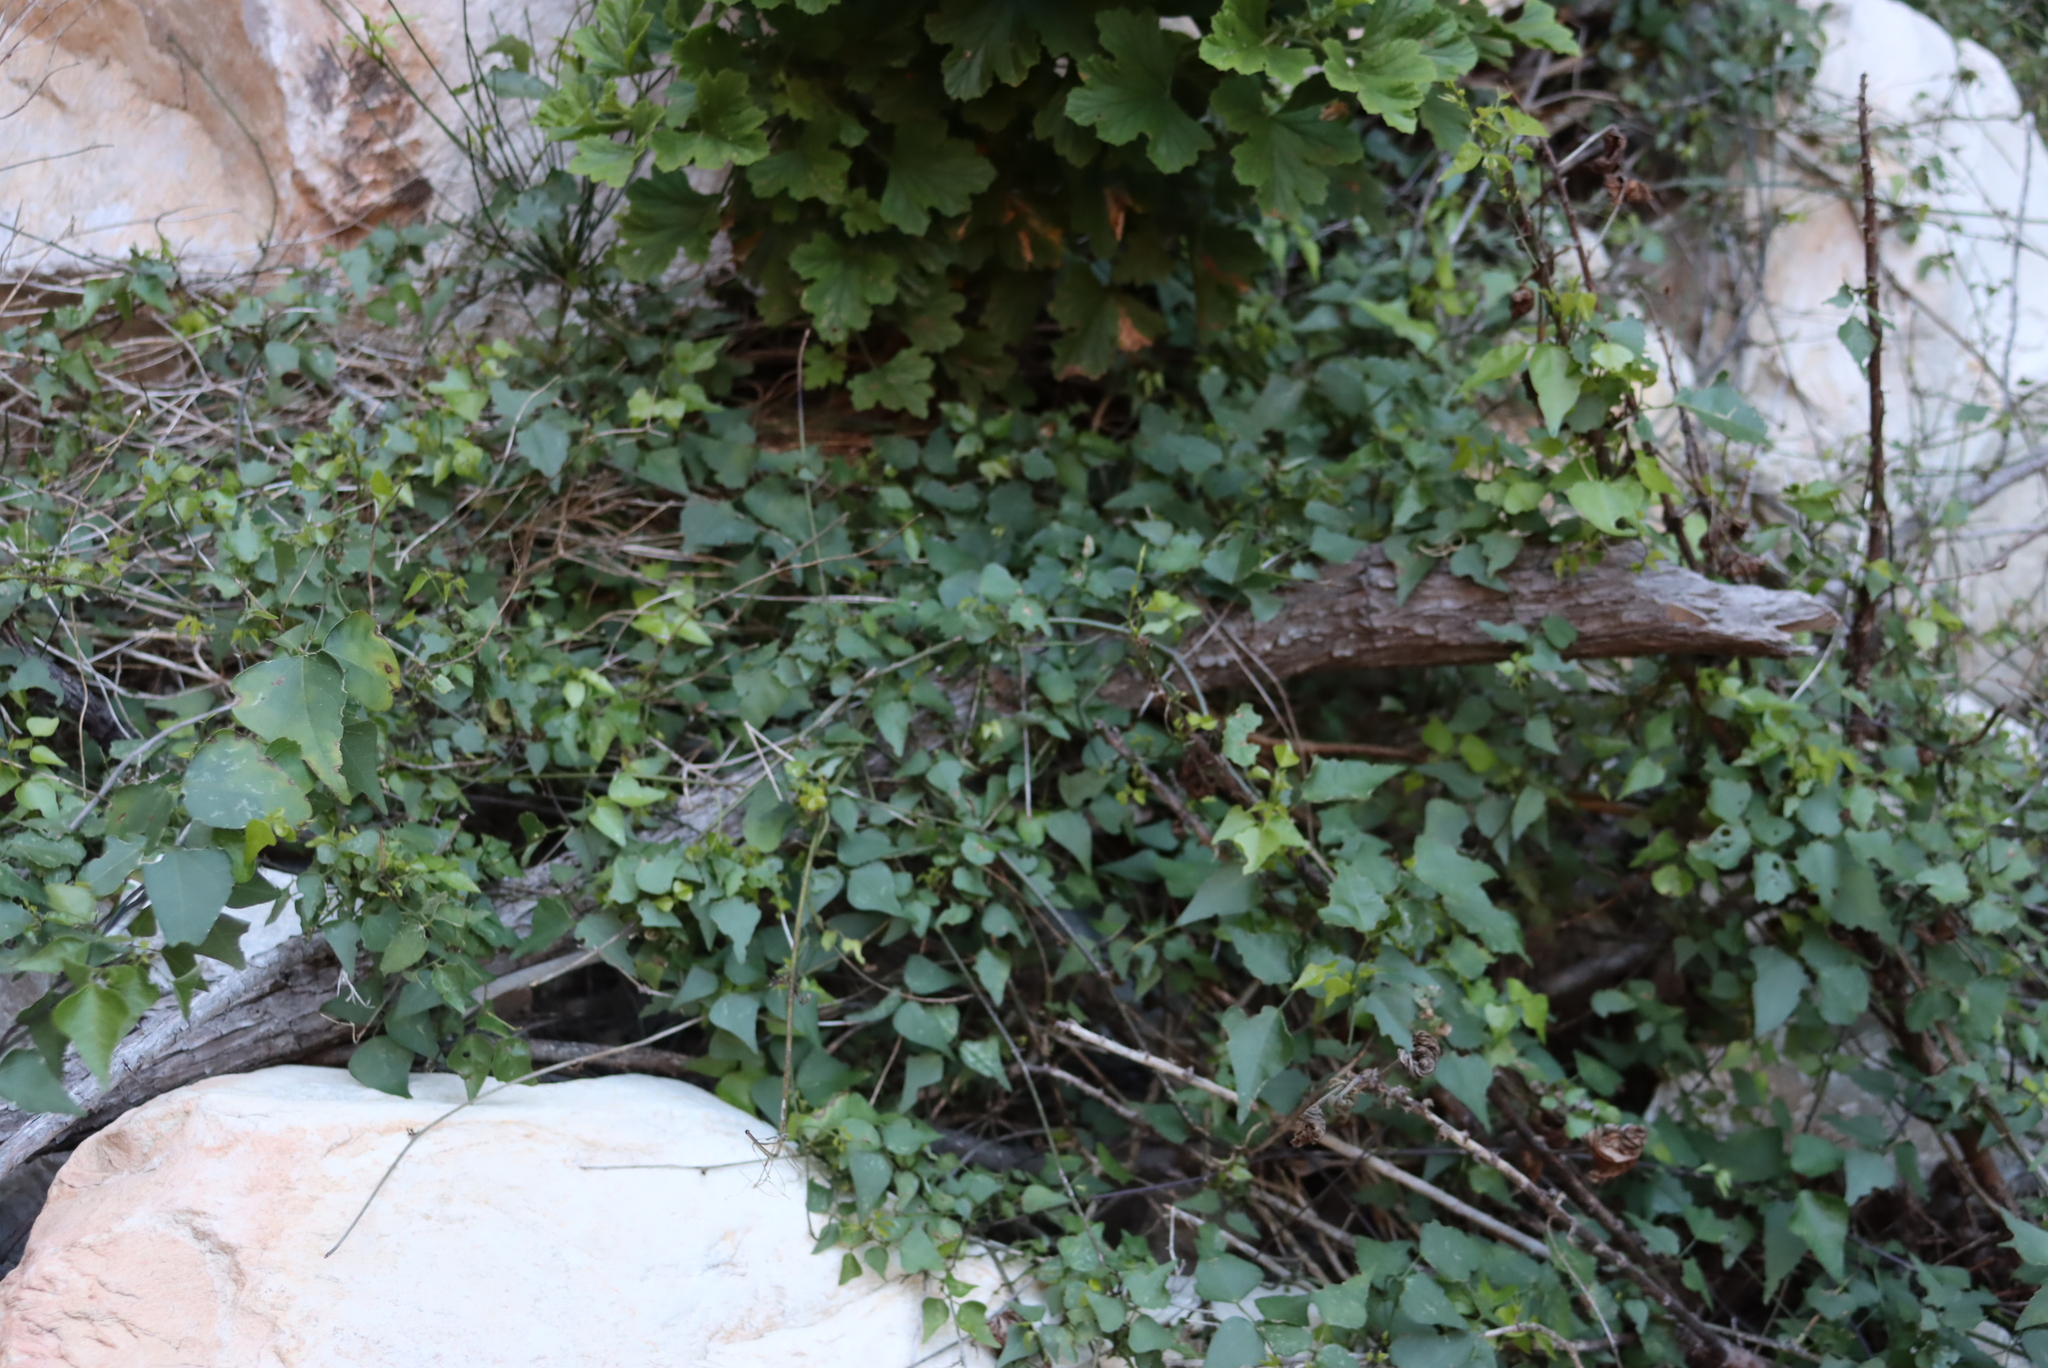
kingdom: Plantae
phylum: Tracheophyta
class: Magnoliopsida
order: Fabales
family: Fabaceae
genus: Dipogon
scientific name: Dipogon lignosus
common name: Okie bean
